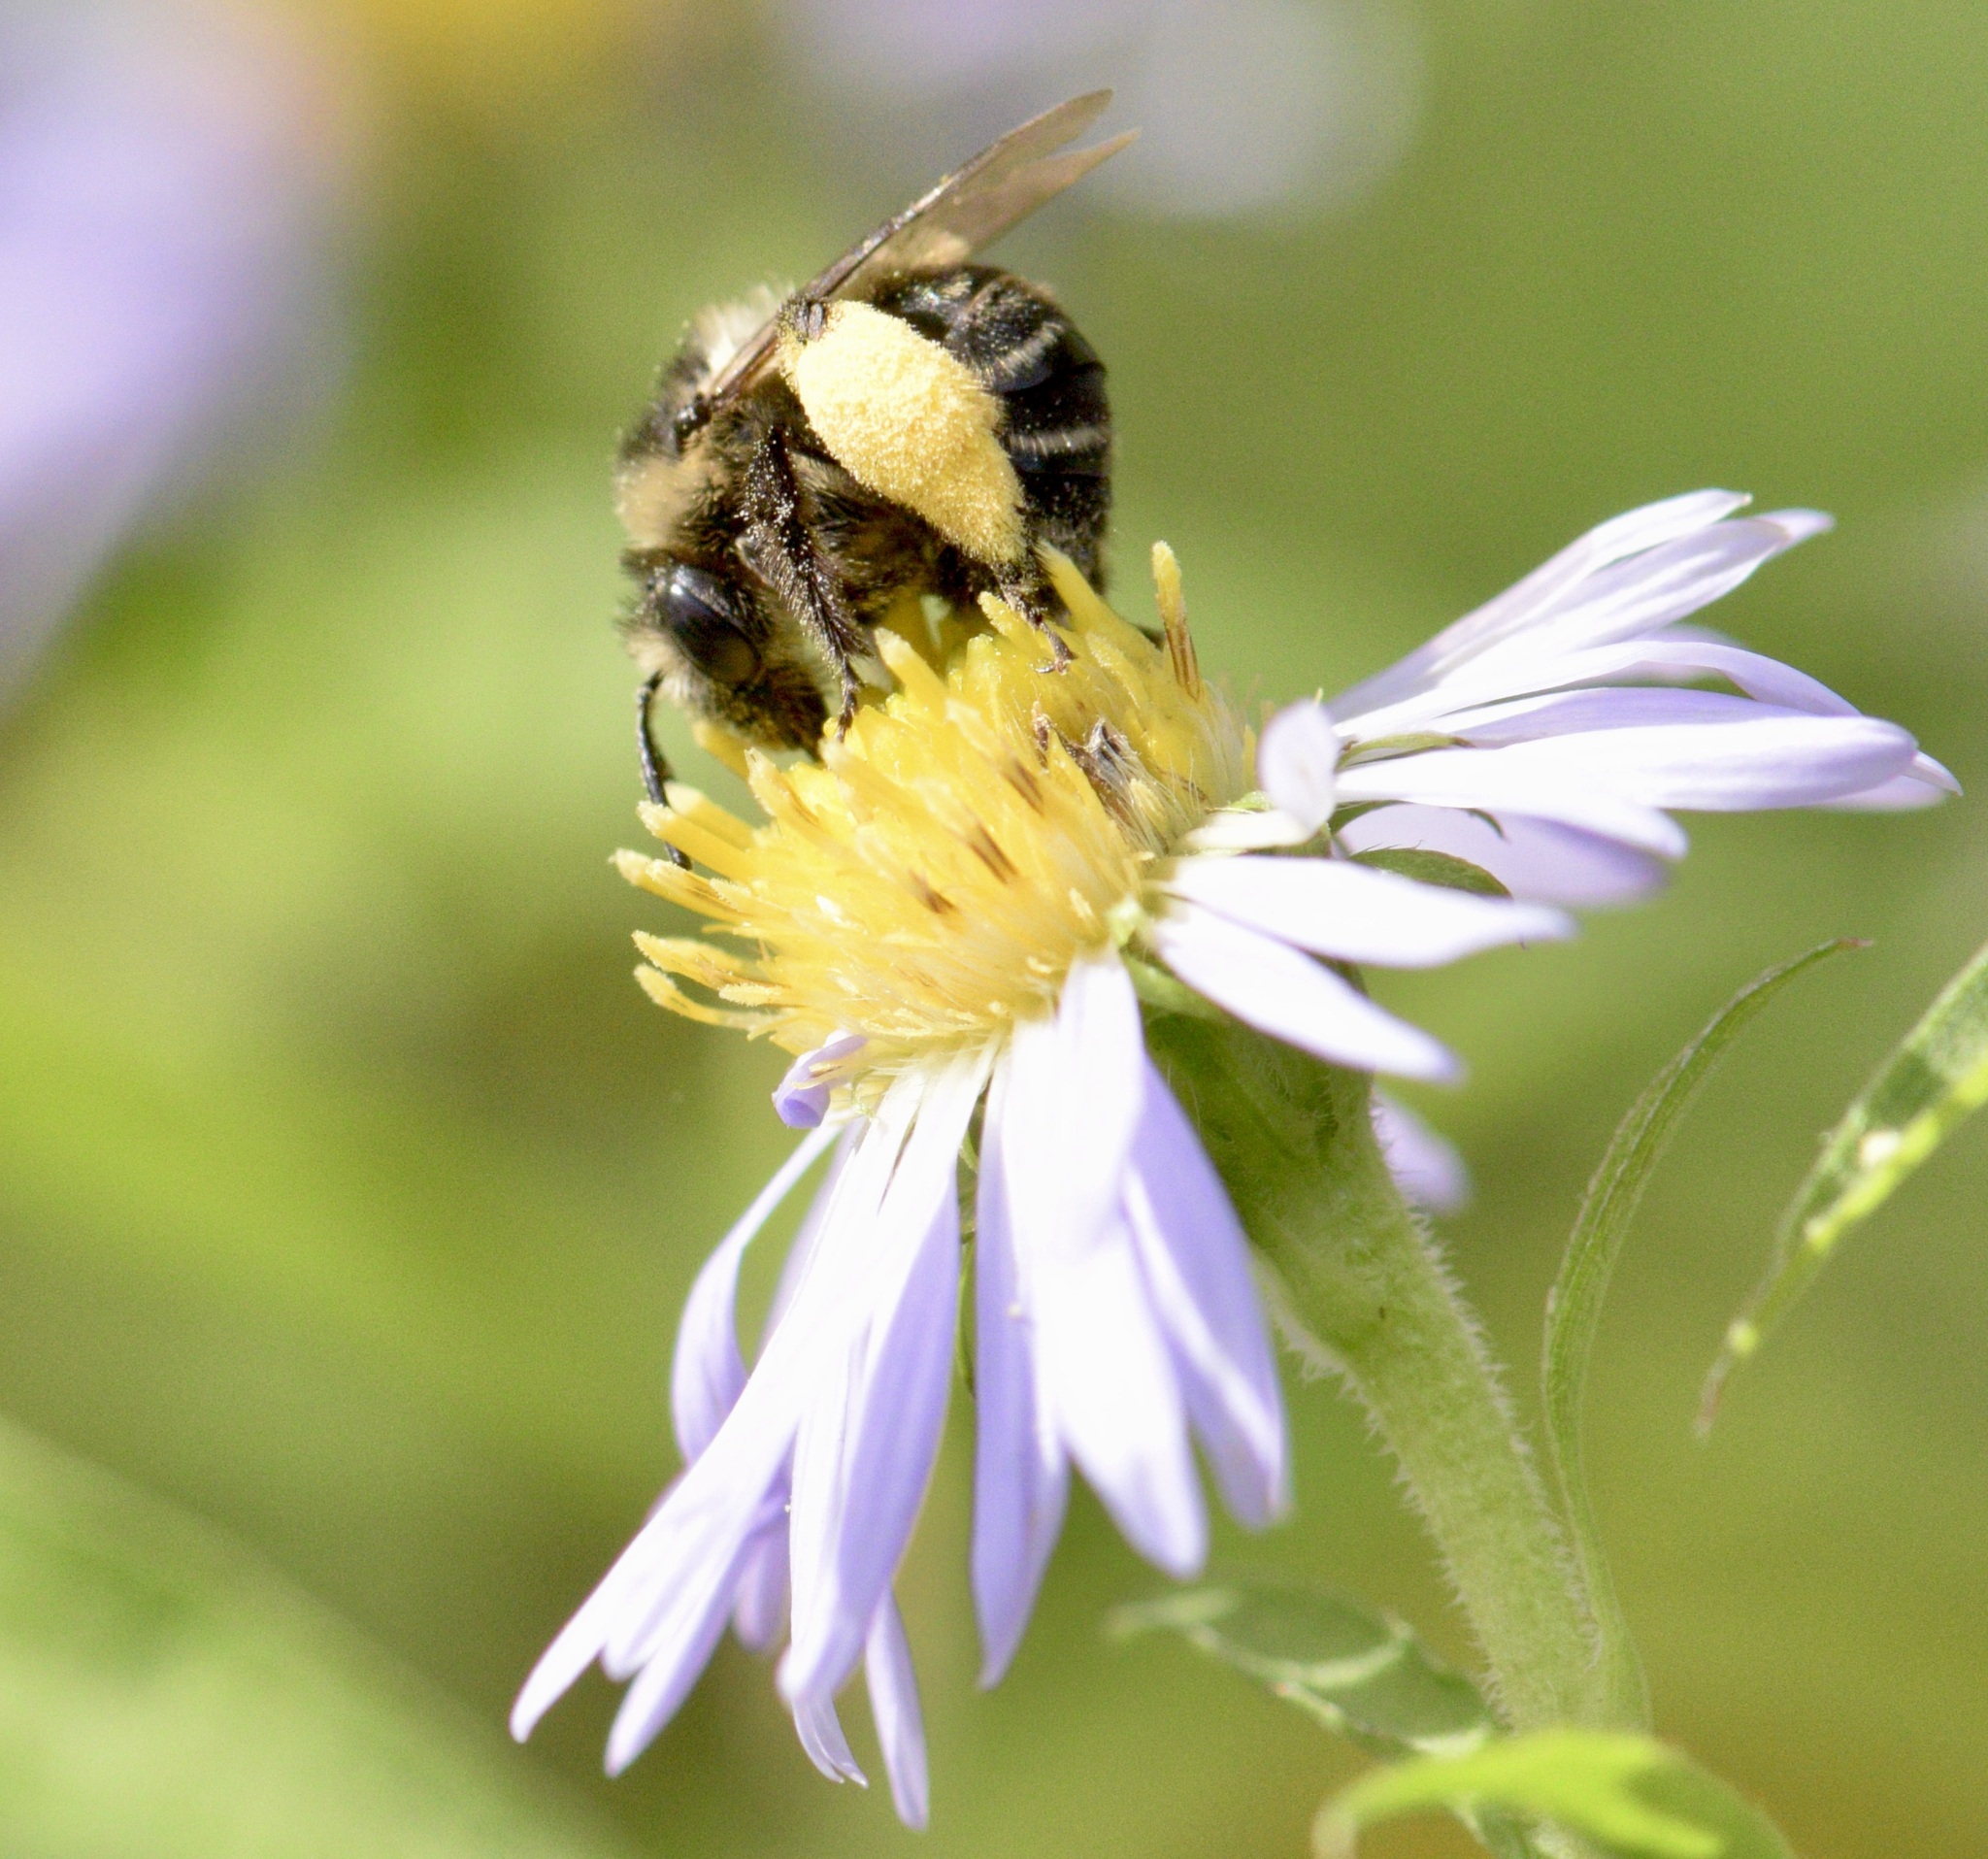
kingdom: Animalia
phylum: Arthropoda
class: Insecta
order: Hymenoptera
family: Apidae
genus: Melissodes
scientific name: Melissodes druriellus
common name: Drury's long-horned bee
